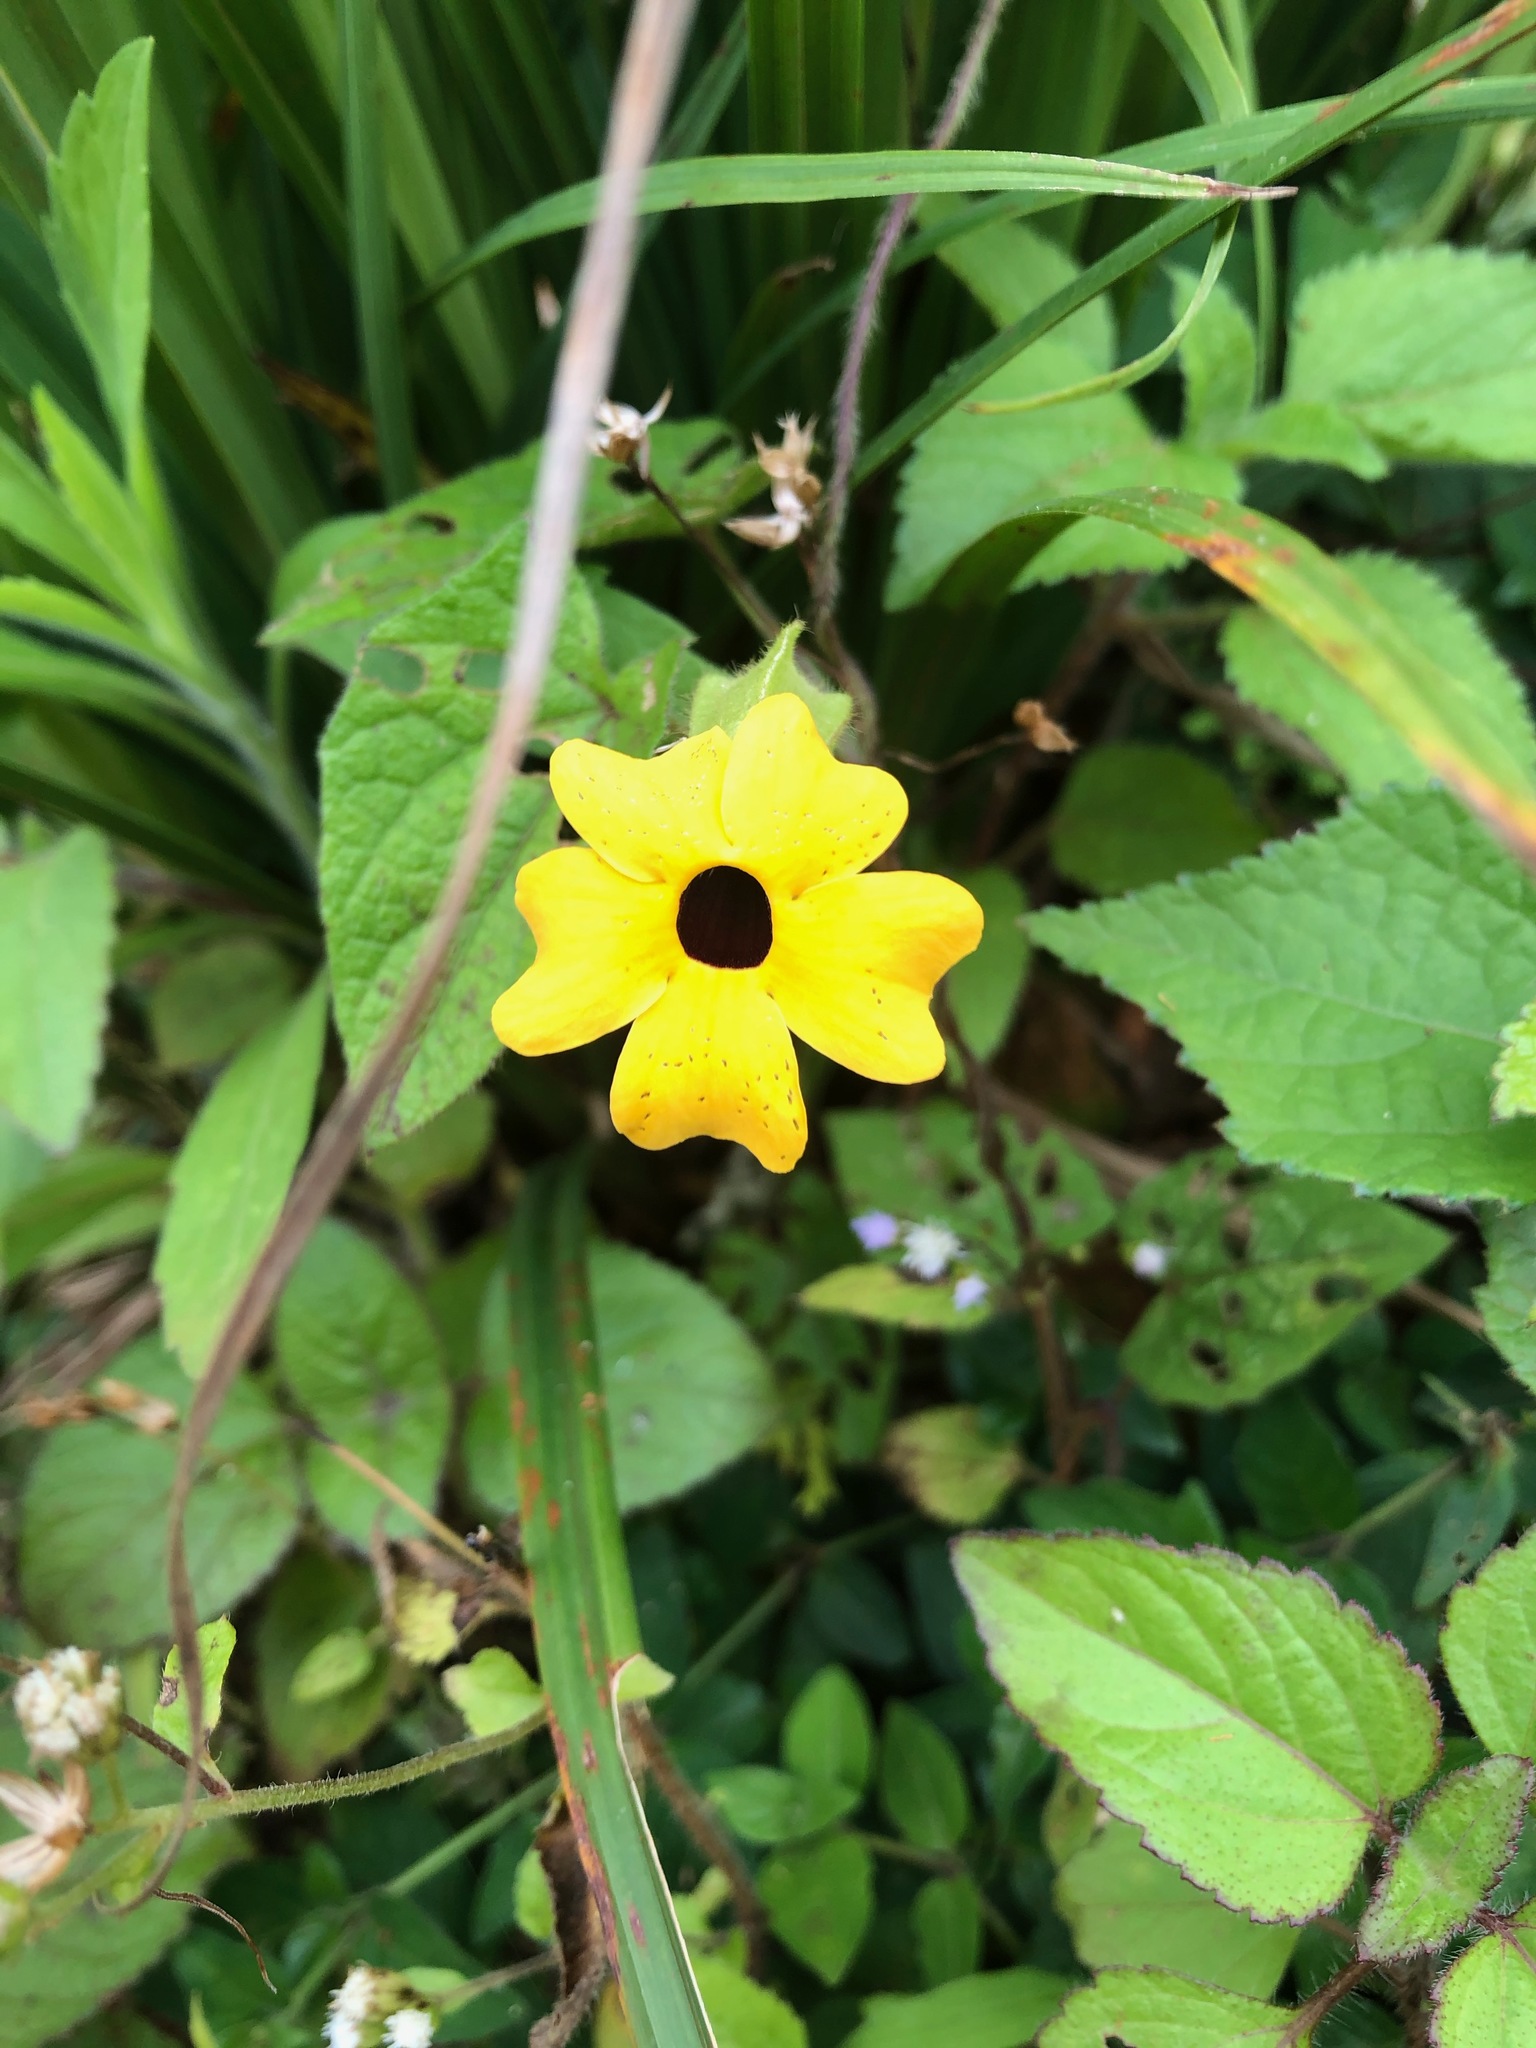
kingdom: Plantae
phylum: Tracheophyta
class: Magnoliopsida
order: Lamiales
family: Acanthaceae
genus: Thunbergia
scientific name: Thunbergia alata
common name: Blackeyed susan vine
